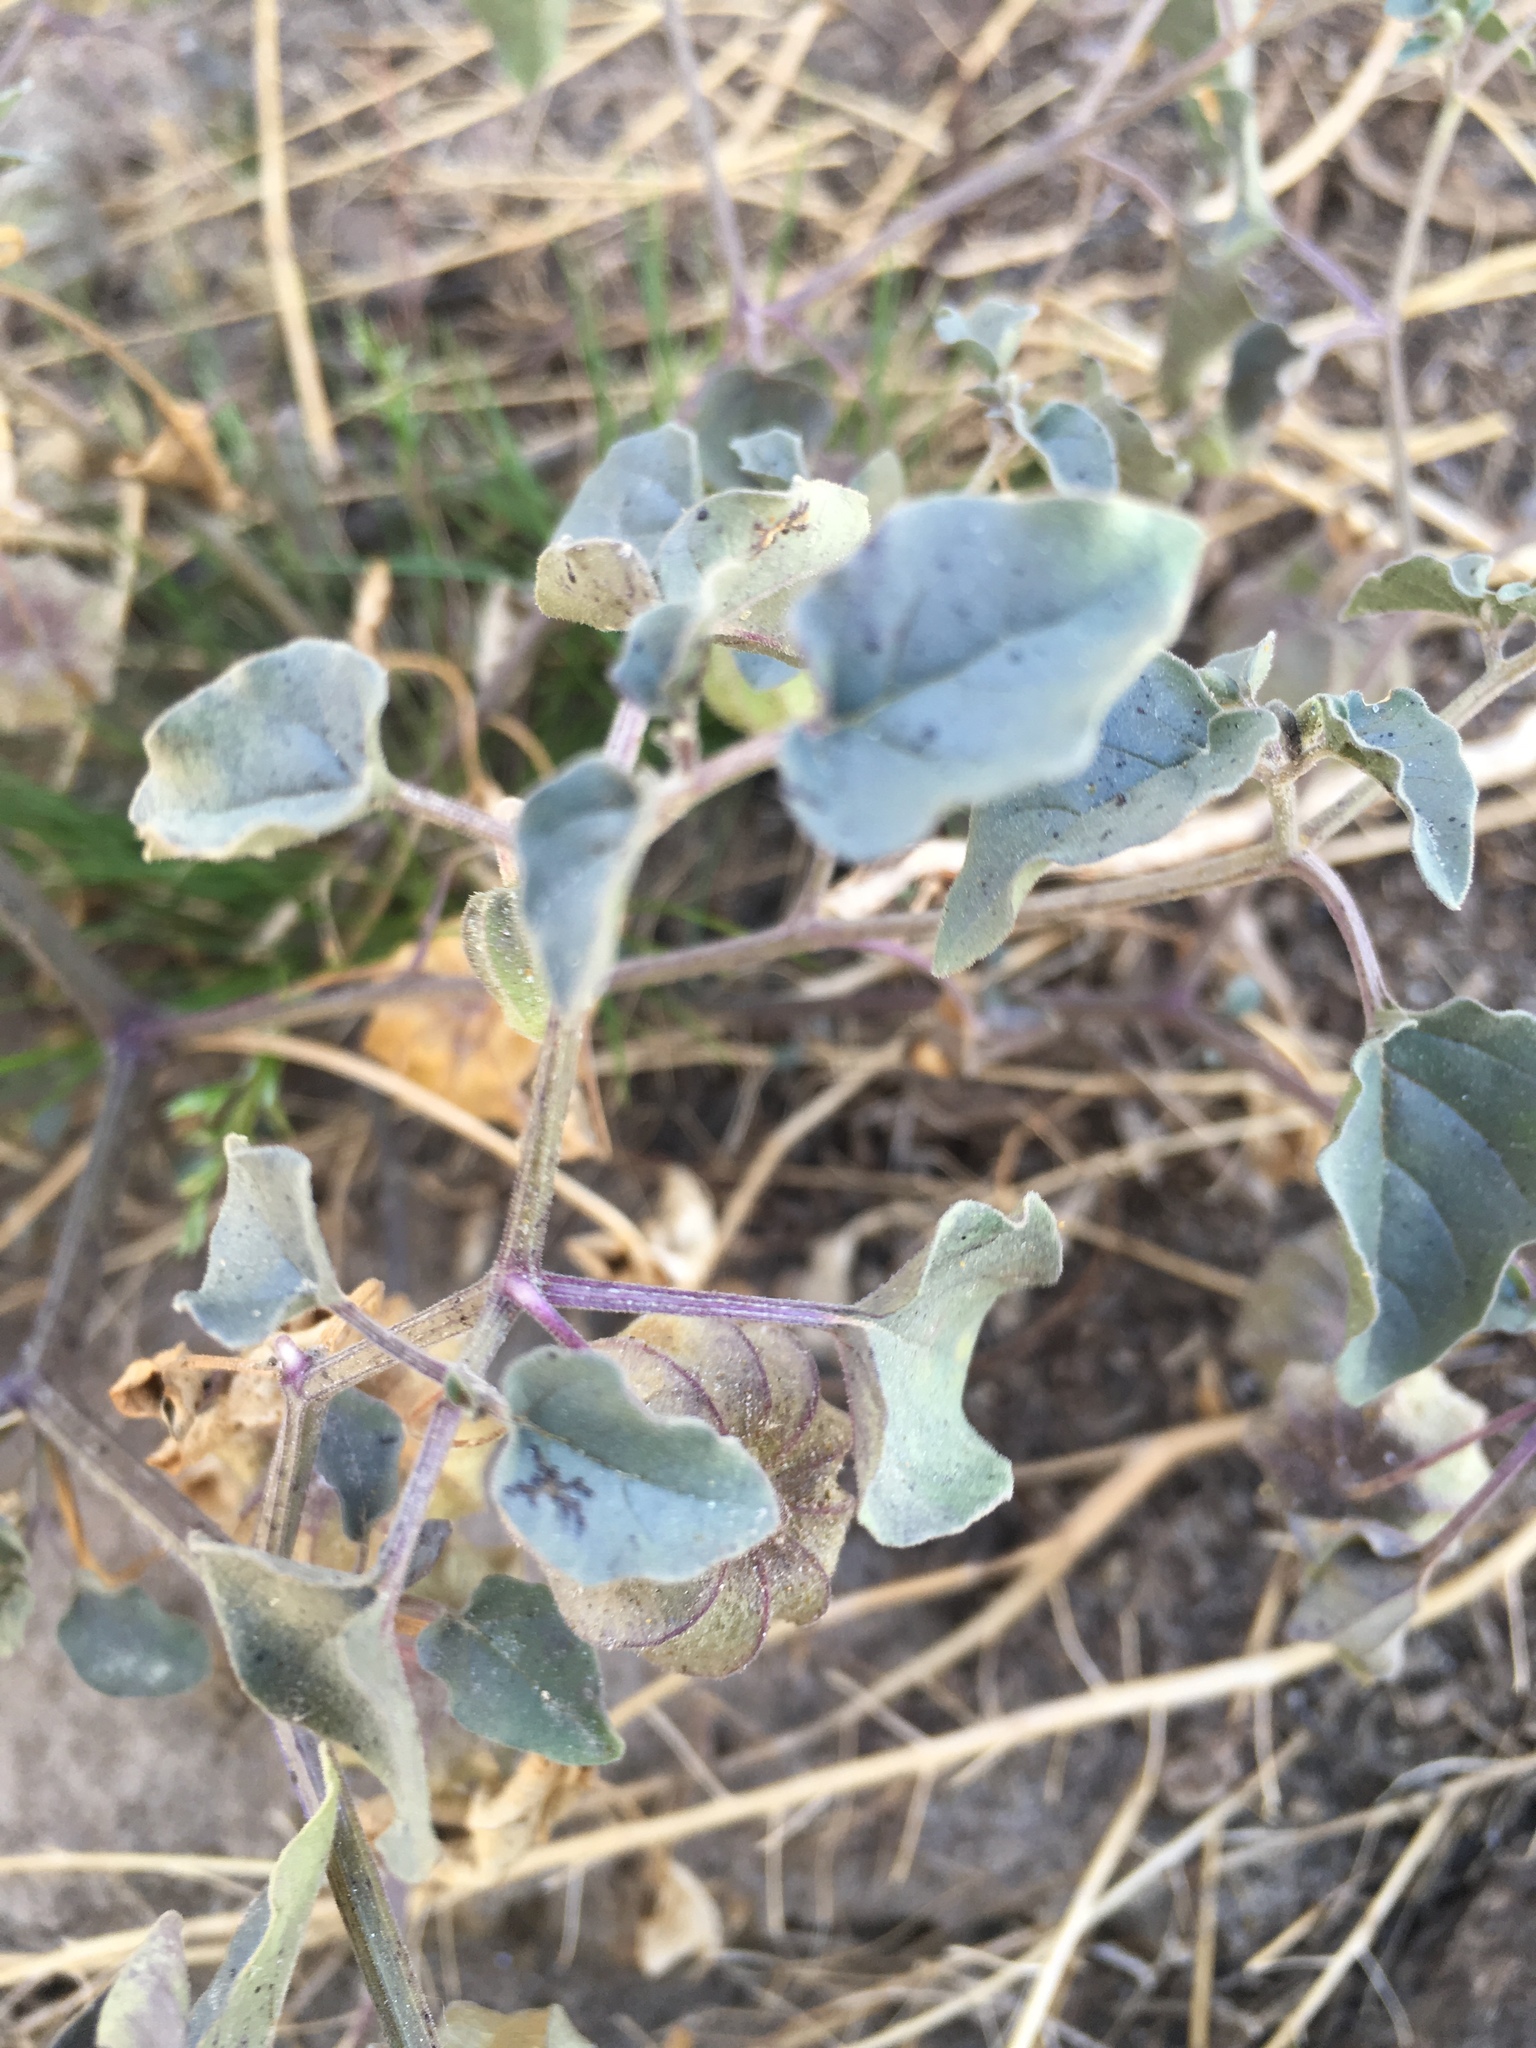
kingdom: Plantae
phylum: Tracheophyta
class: Magnoliopsida
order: Solanales
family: Solanaceae
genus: Physalis
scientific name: Physalis crassifolia
